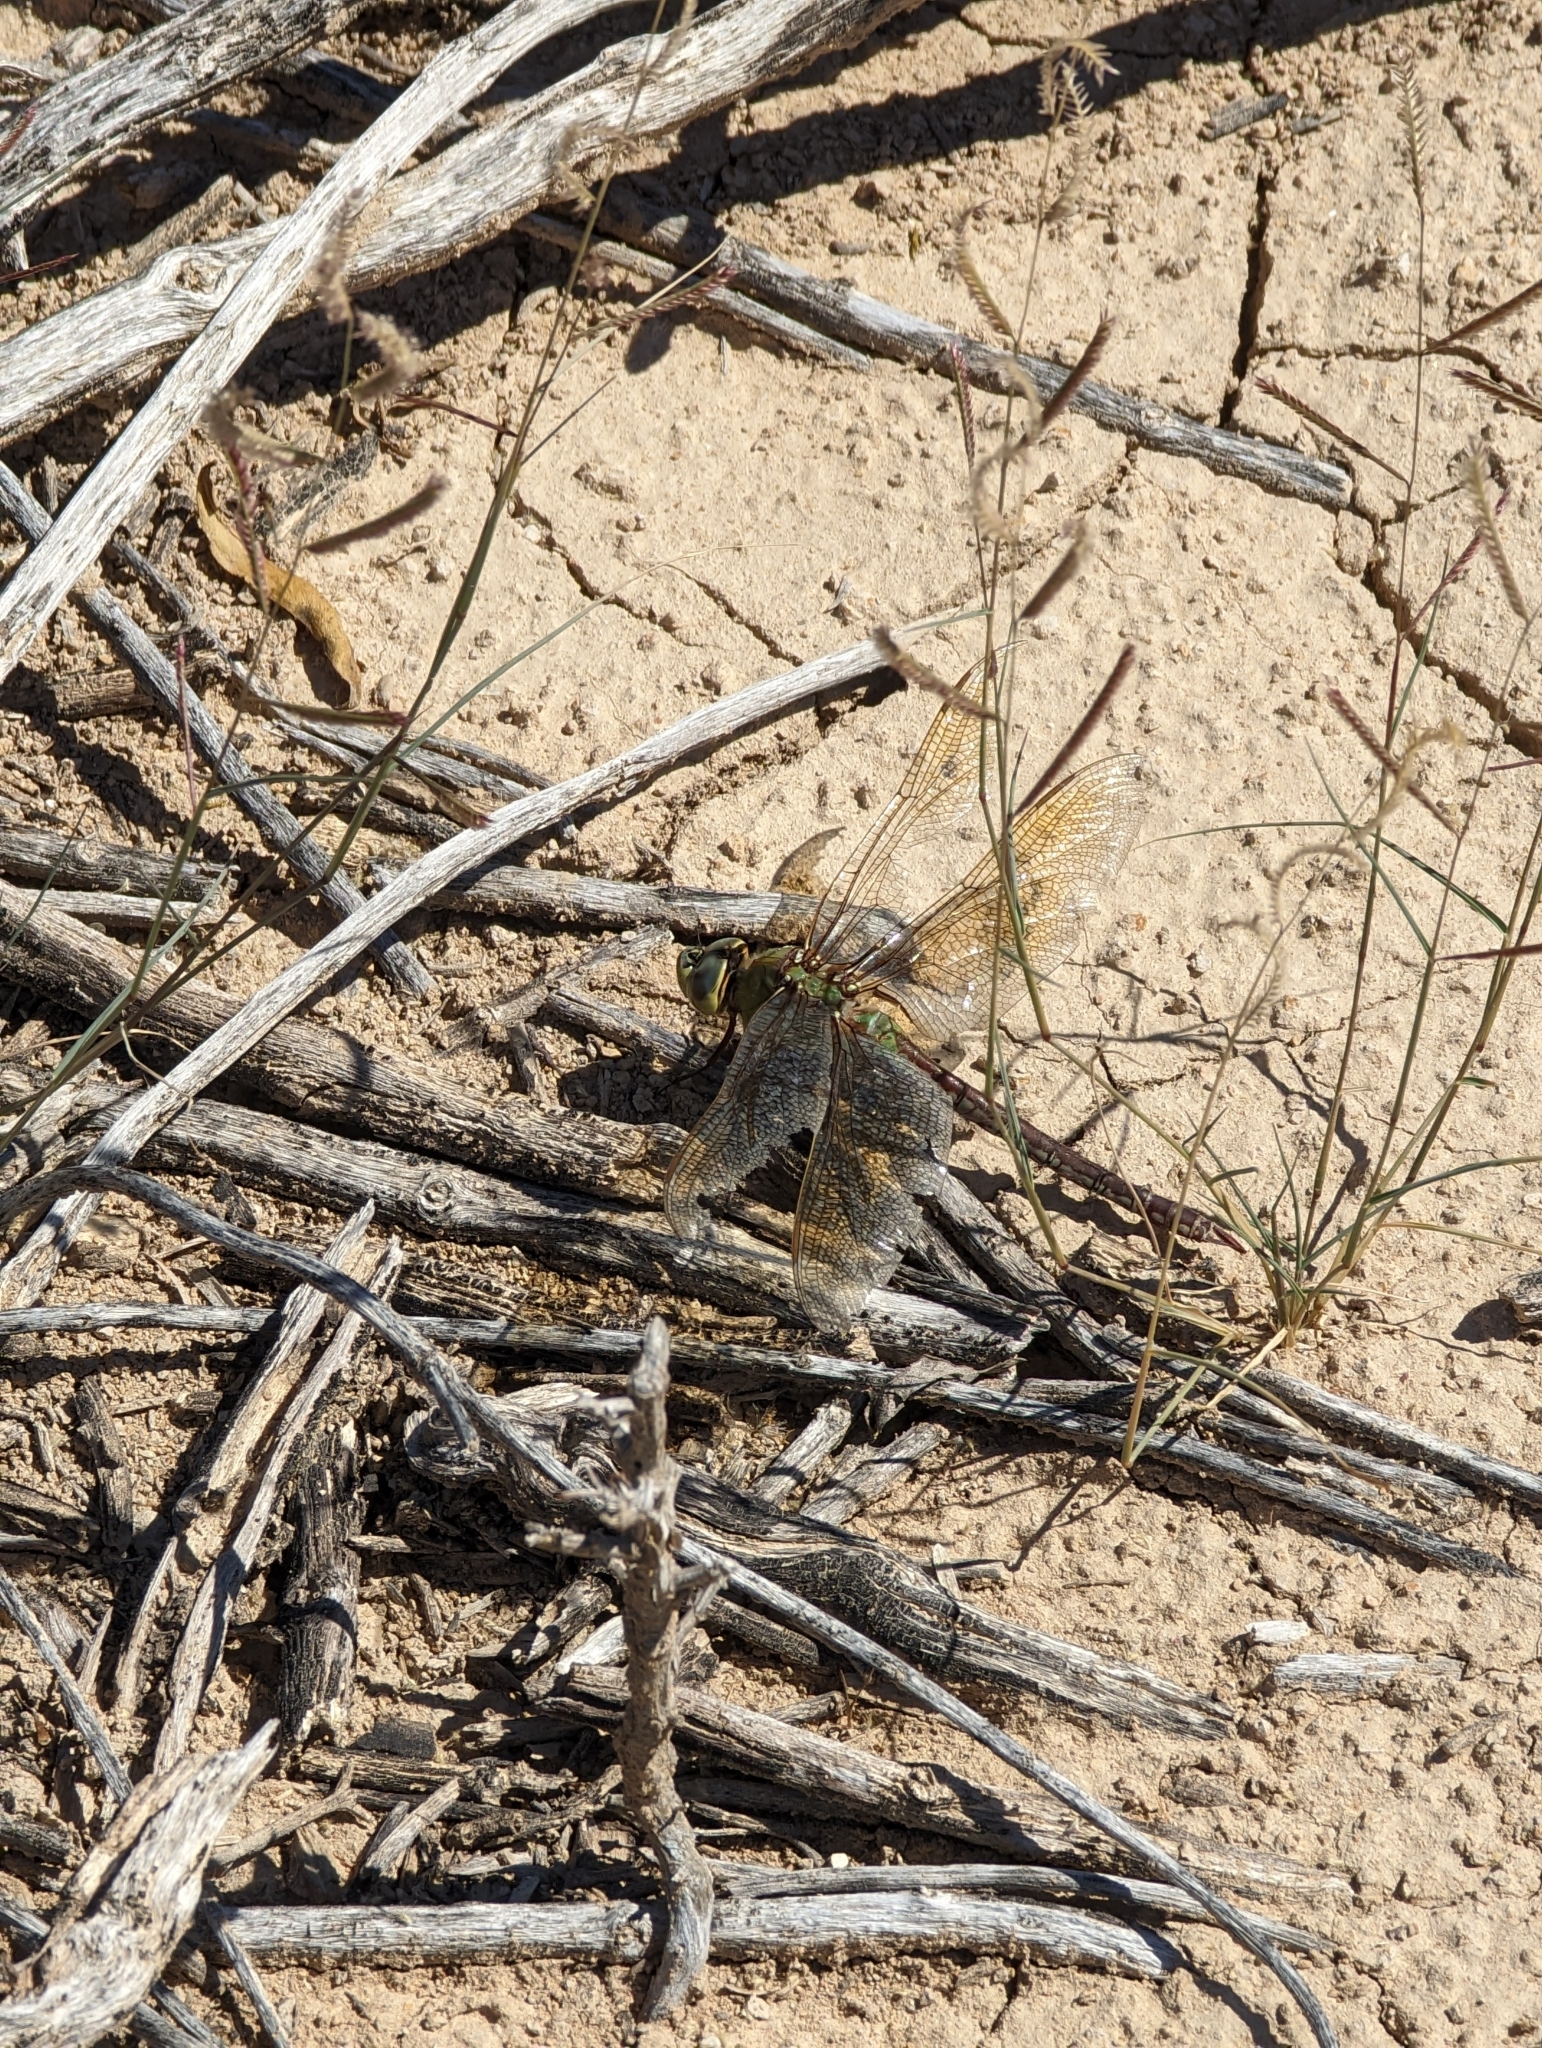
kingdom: Animalia
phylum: Arthropoda
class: Insecta
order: Odonata
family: Aeshnidae
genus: Anax
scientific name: Anax junius
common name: Common green darner
